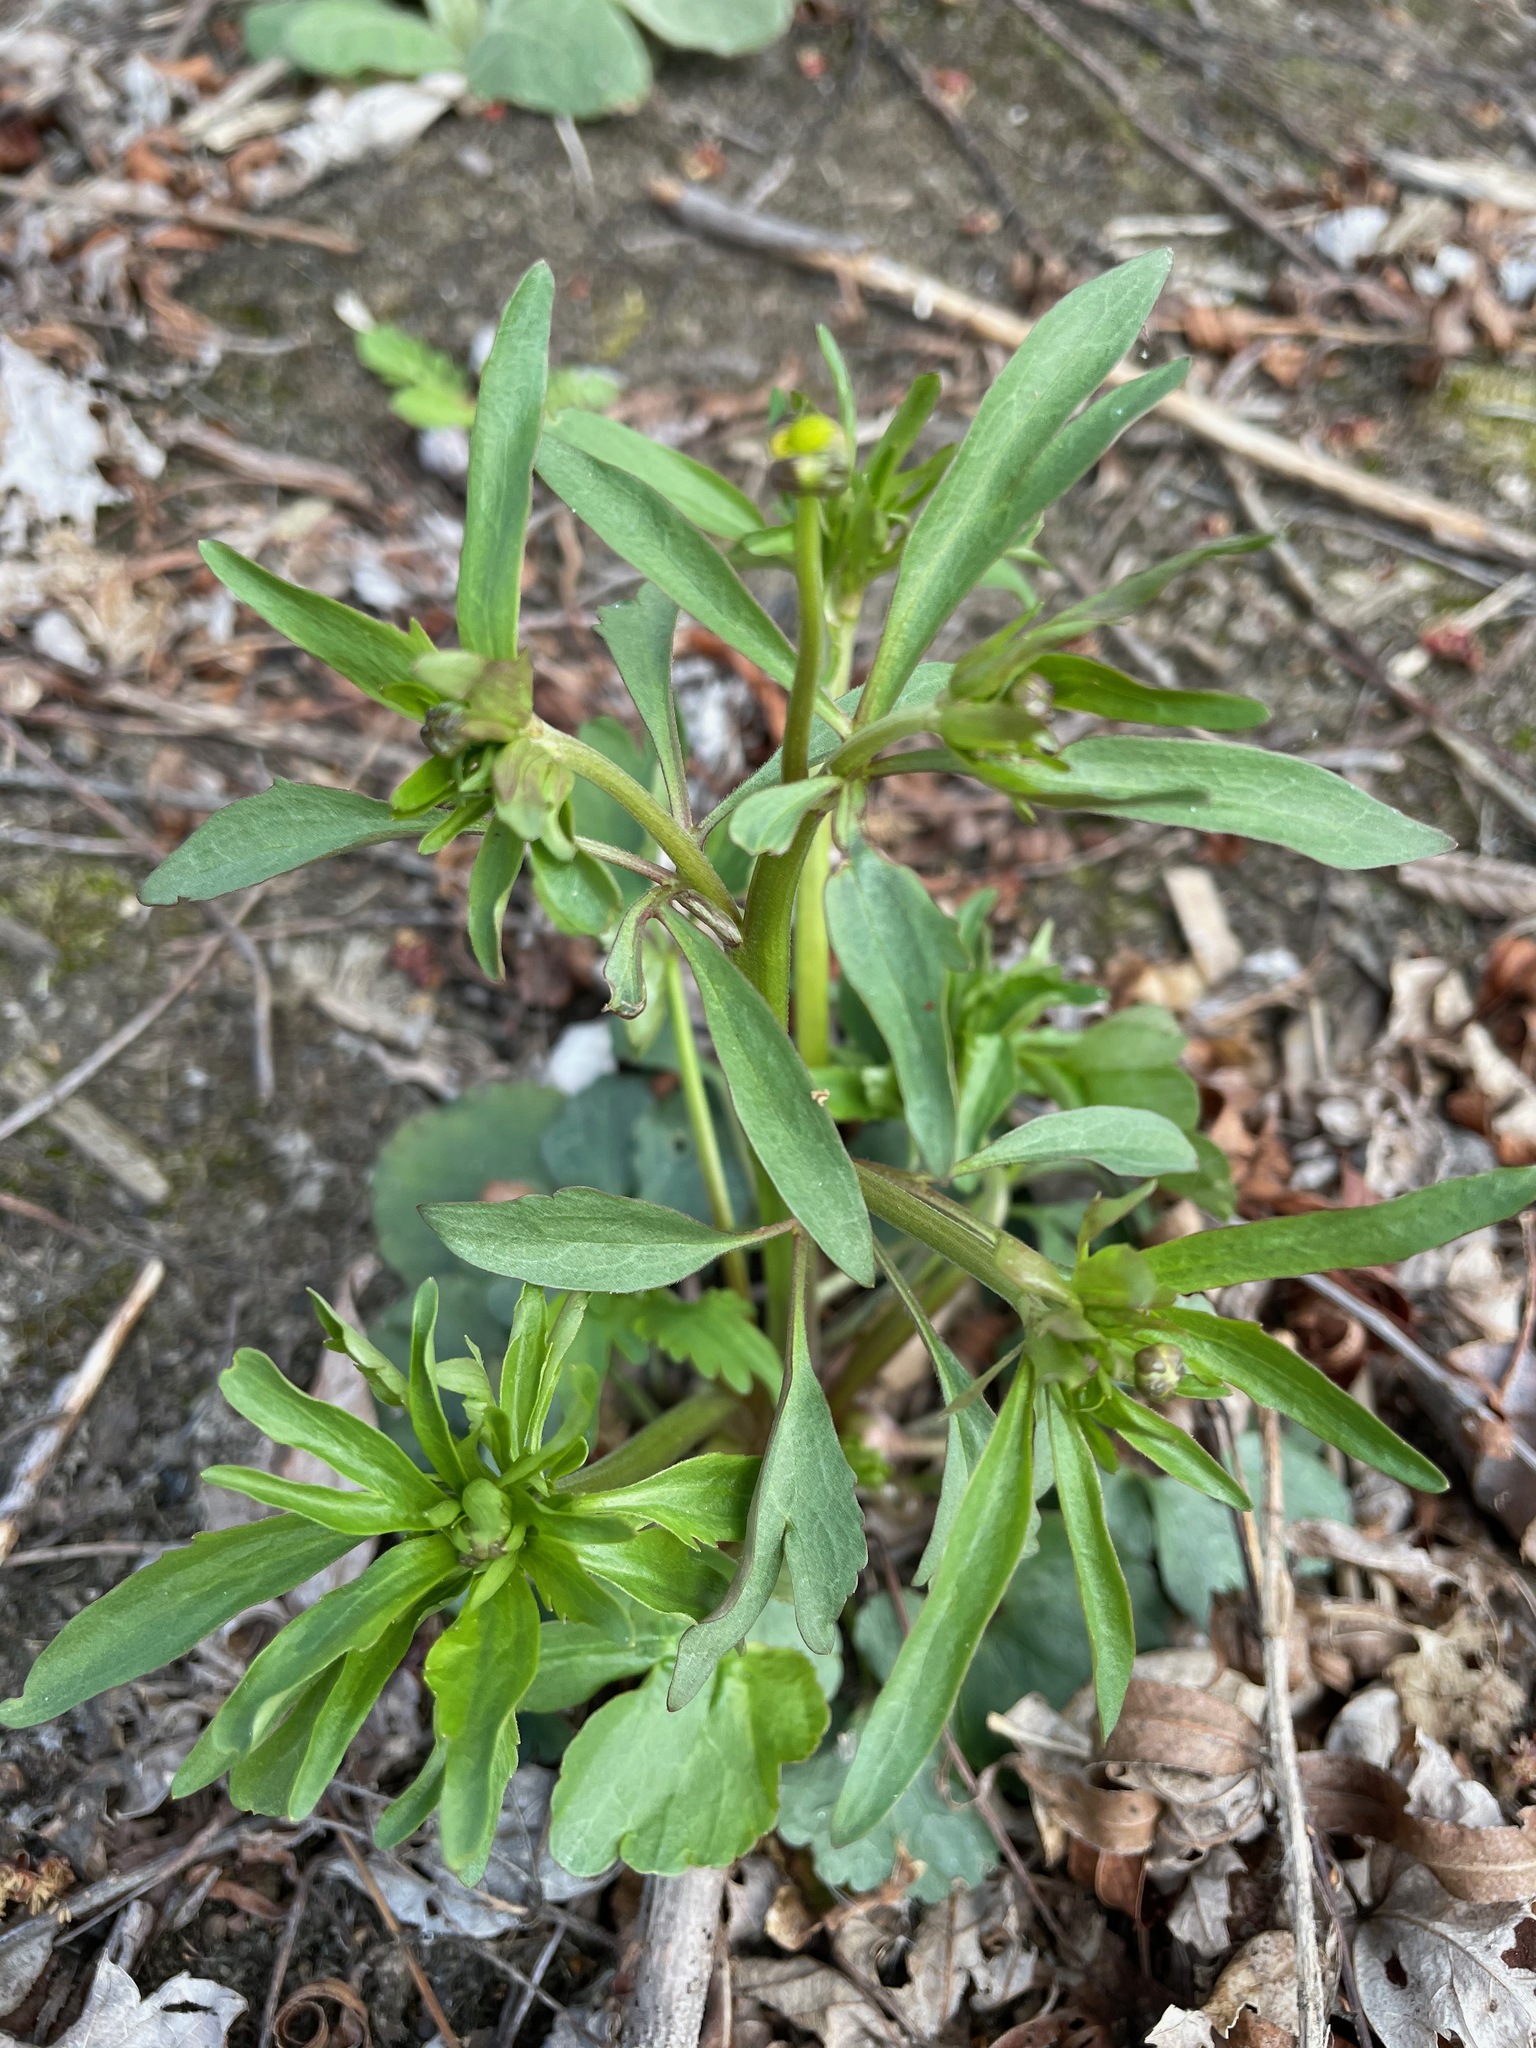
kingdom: Plantae
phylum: Tracheophyta
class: Magnoliopsida
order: Ranunculales
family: Ranunculaceae
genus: Ranunculus
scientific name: Ranunculus abortivus
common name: Early wood buttercup
